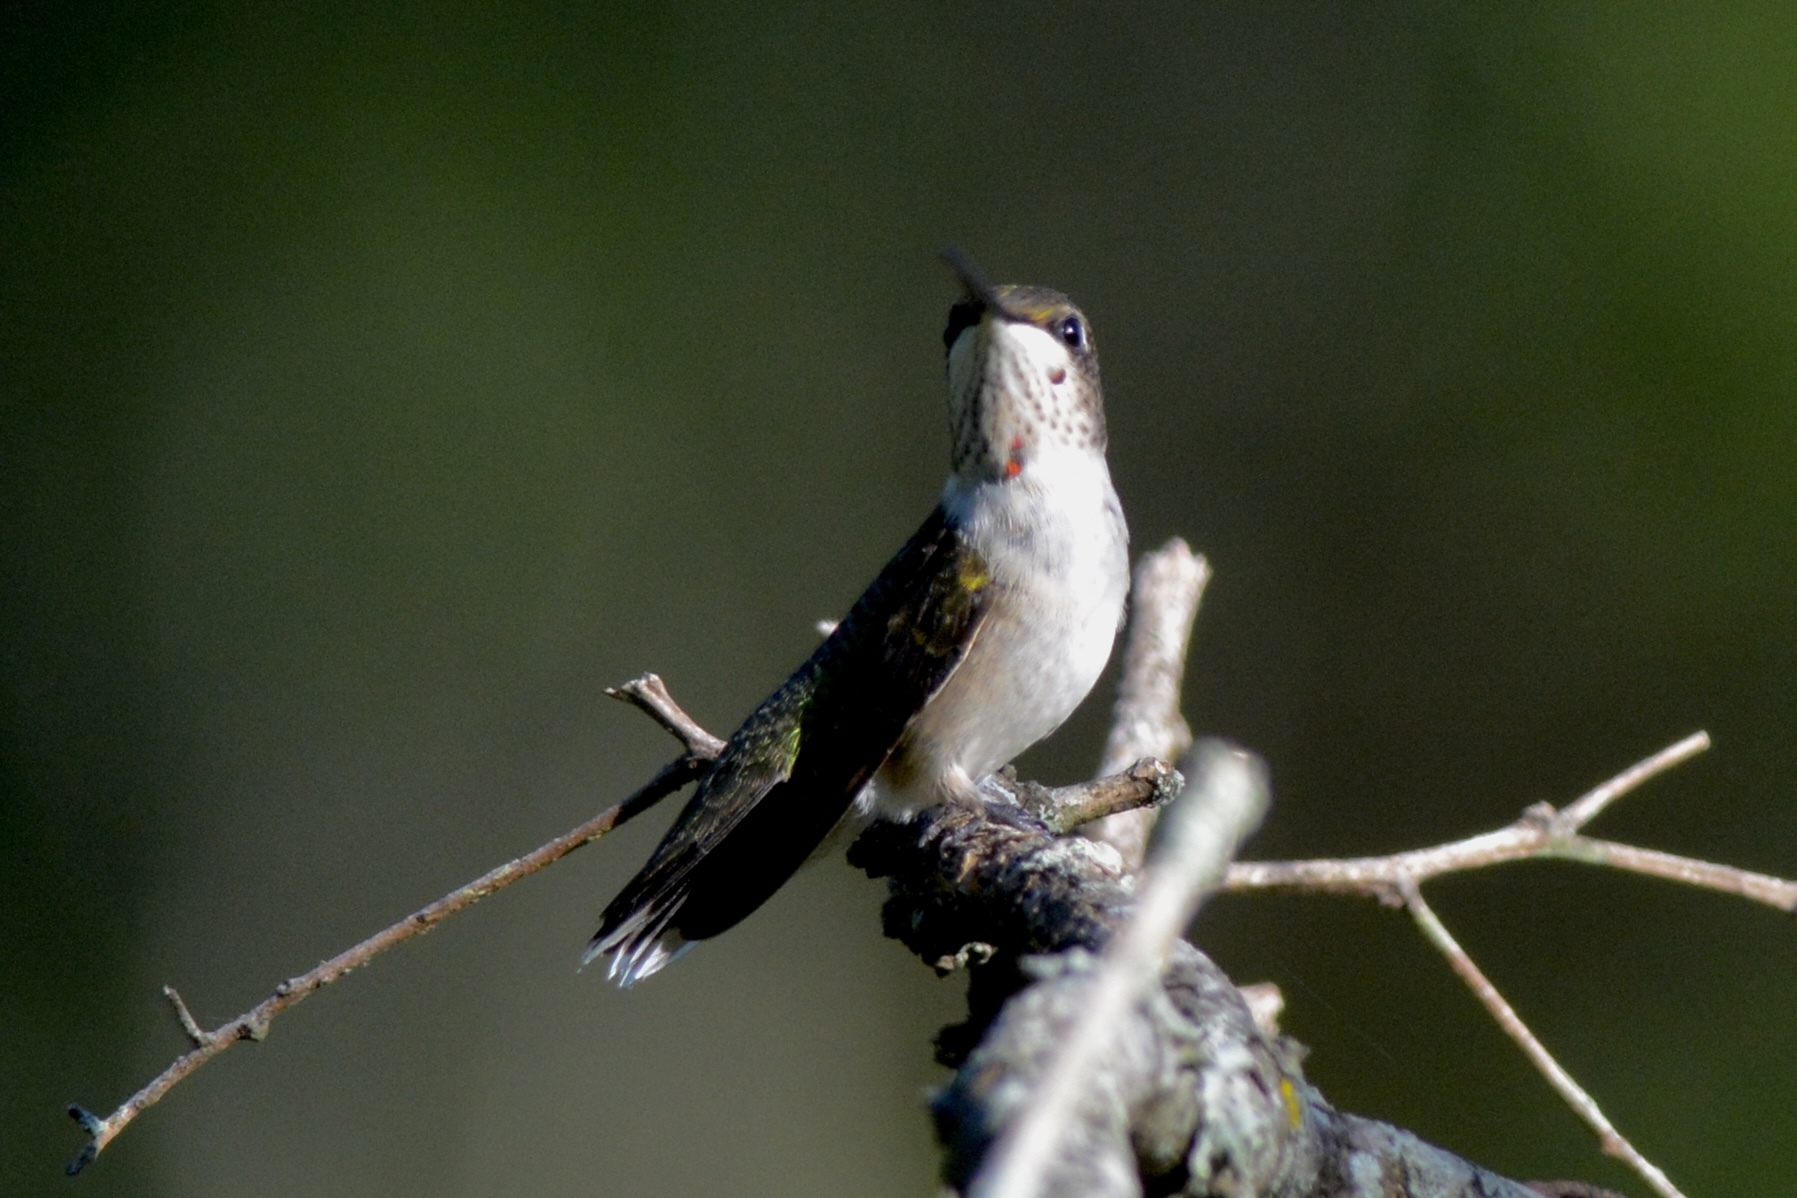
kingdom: Animalia
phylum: Chordata
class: Aves
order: Apodiformes
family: Trochilidae
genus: Archilochus
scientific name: Archilochus colubris
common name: Ruby-throated hummingbird
